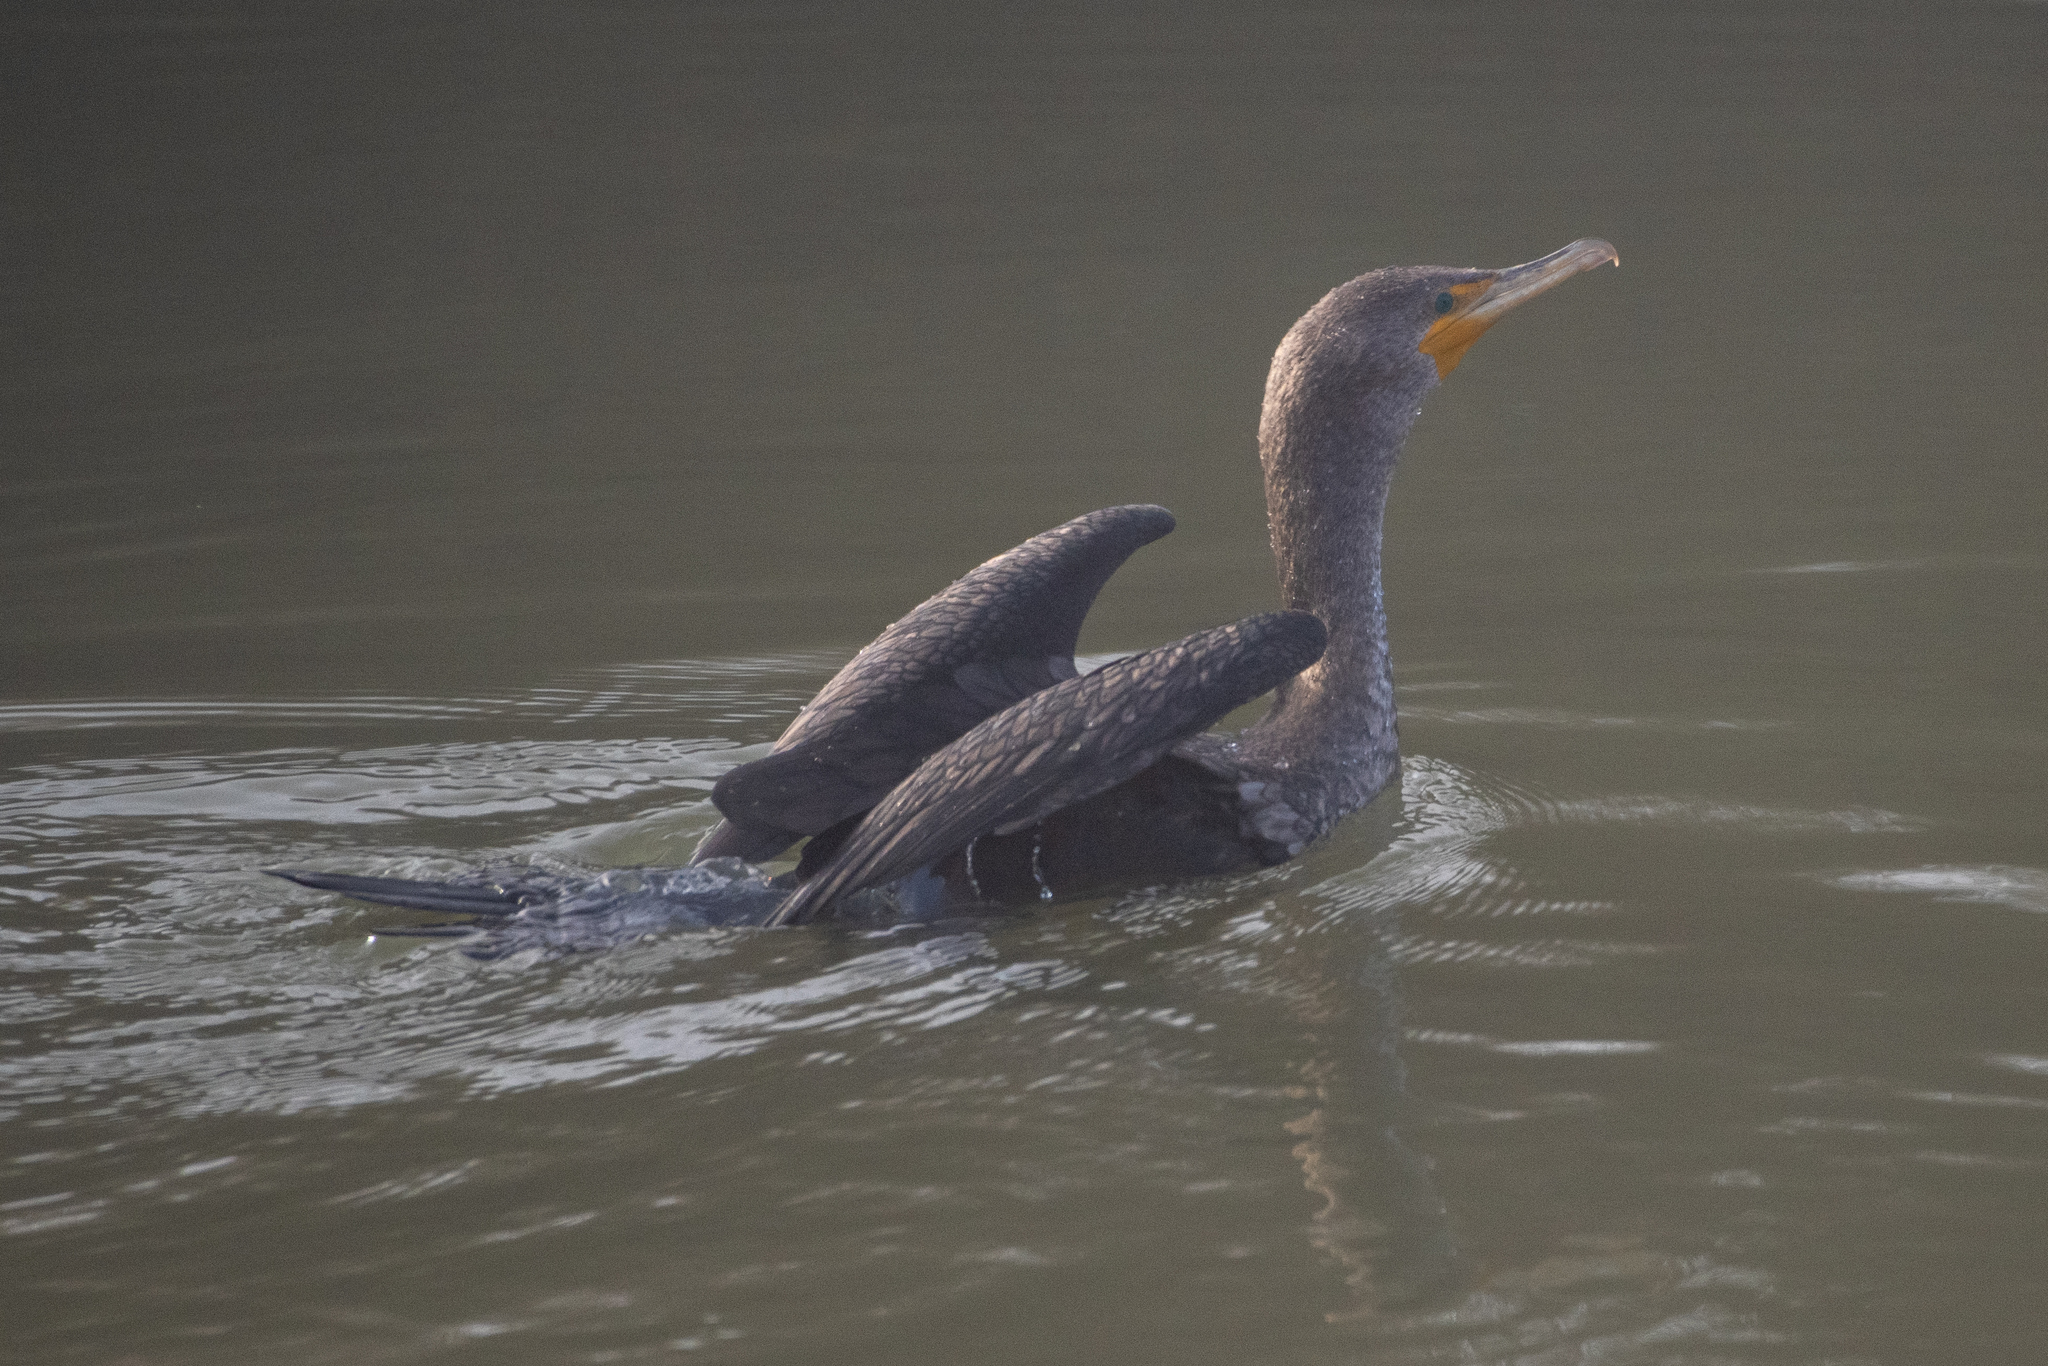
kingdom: Animalia
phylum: Chordata
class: Aves
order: Suliformes
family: Phalacrocoracidae
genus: Phalacrocorax
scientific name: Phalacrocorax auritus
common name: Double-crested cormorant
